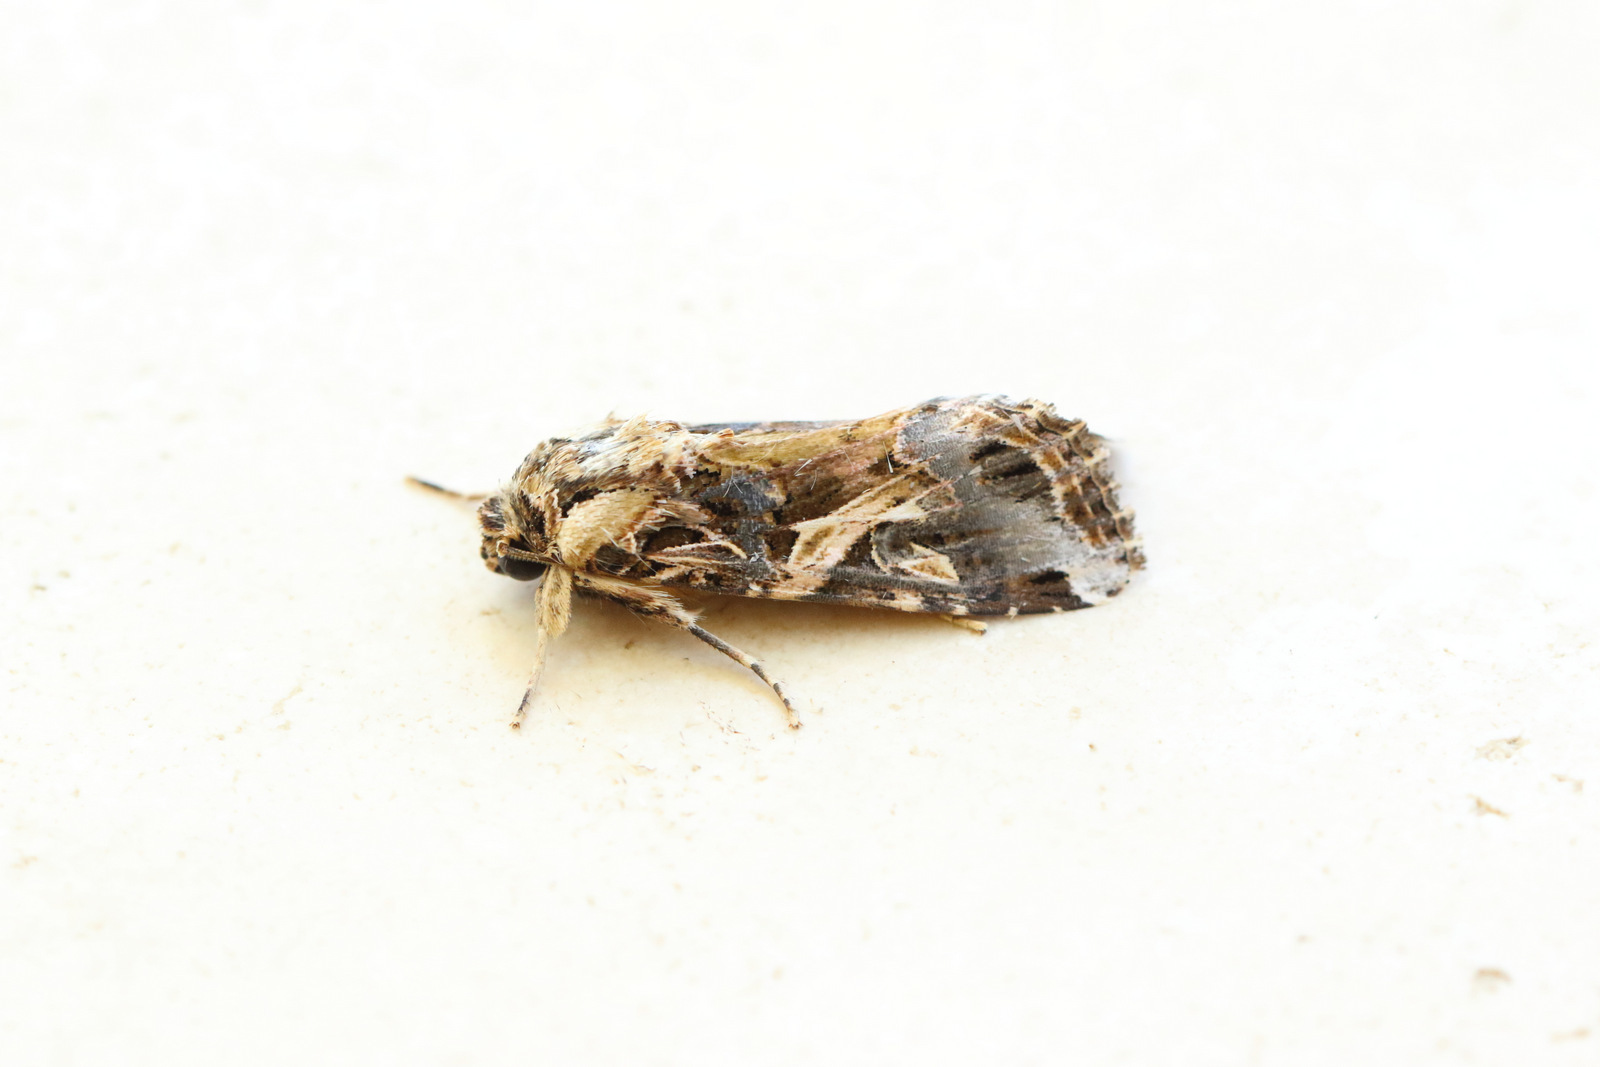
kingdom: Animalia
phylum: Arthropoda
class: Insecta
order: Lepidoptera
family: Noctuidae
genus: Spodoptera
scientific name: Spodoptera litura
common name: Asian cotton leafworm
